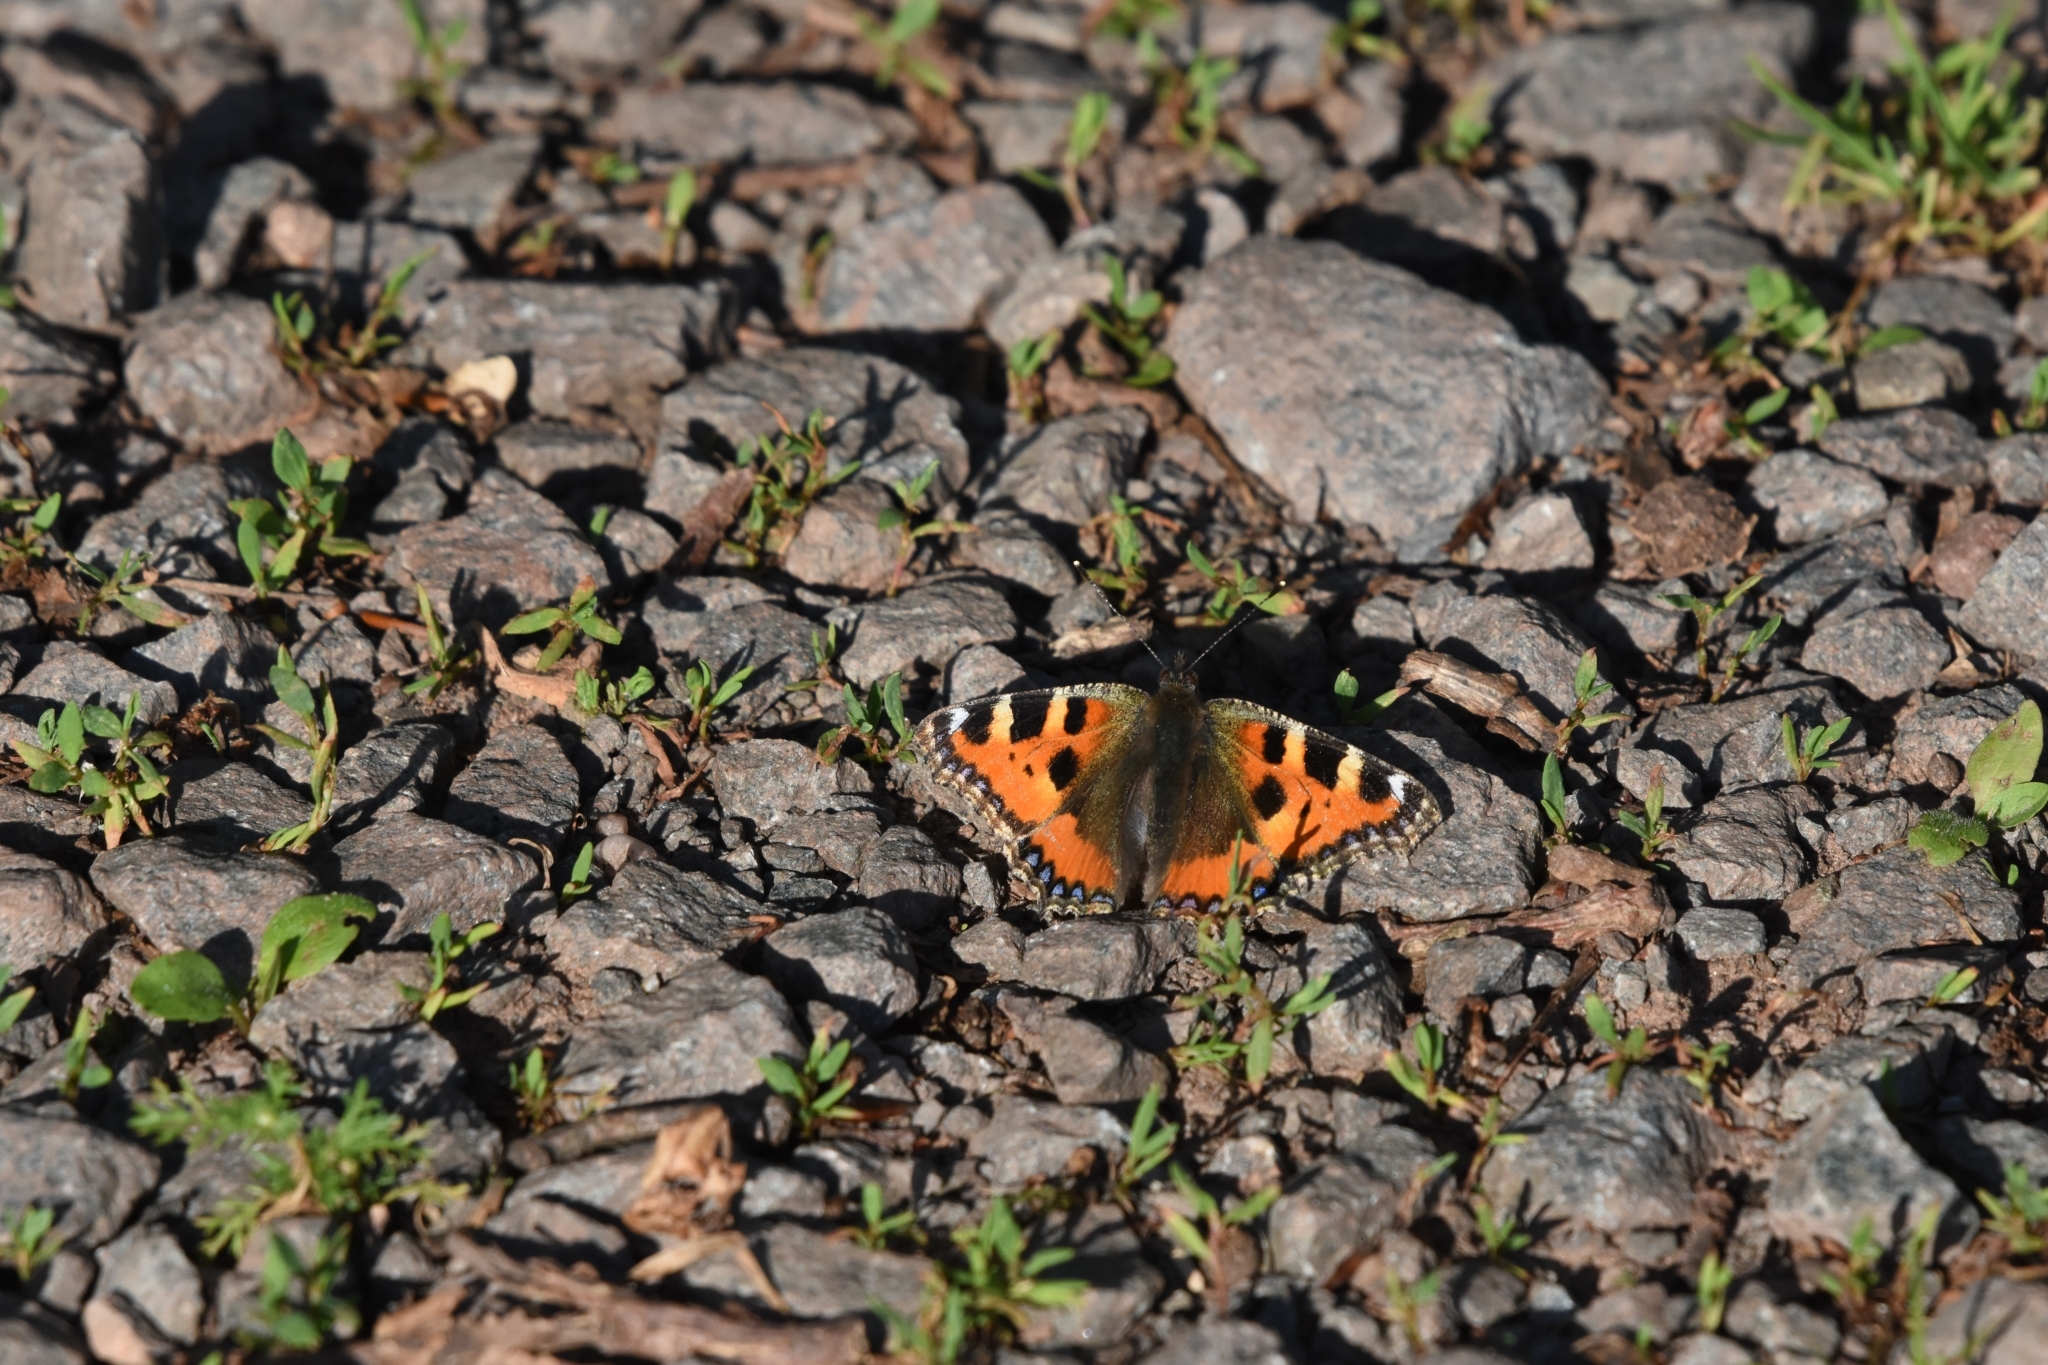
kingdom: Animalia
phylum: Arthropoda
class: Insecta
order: Lepidoptera
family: Nymphalidae
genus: Aglais
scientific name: Aglais urticae
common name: Small tortoiseshell
